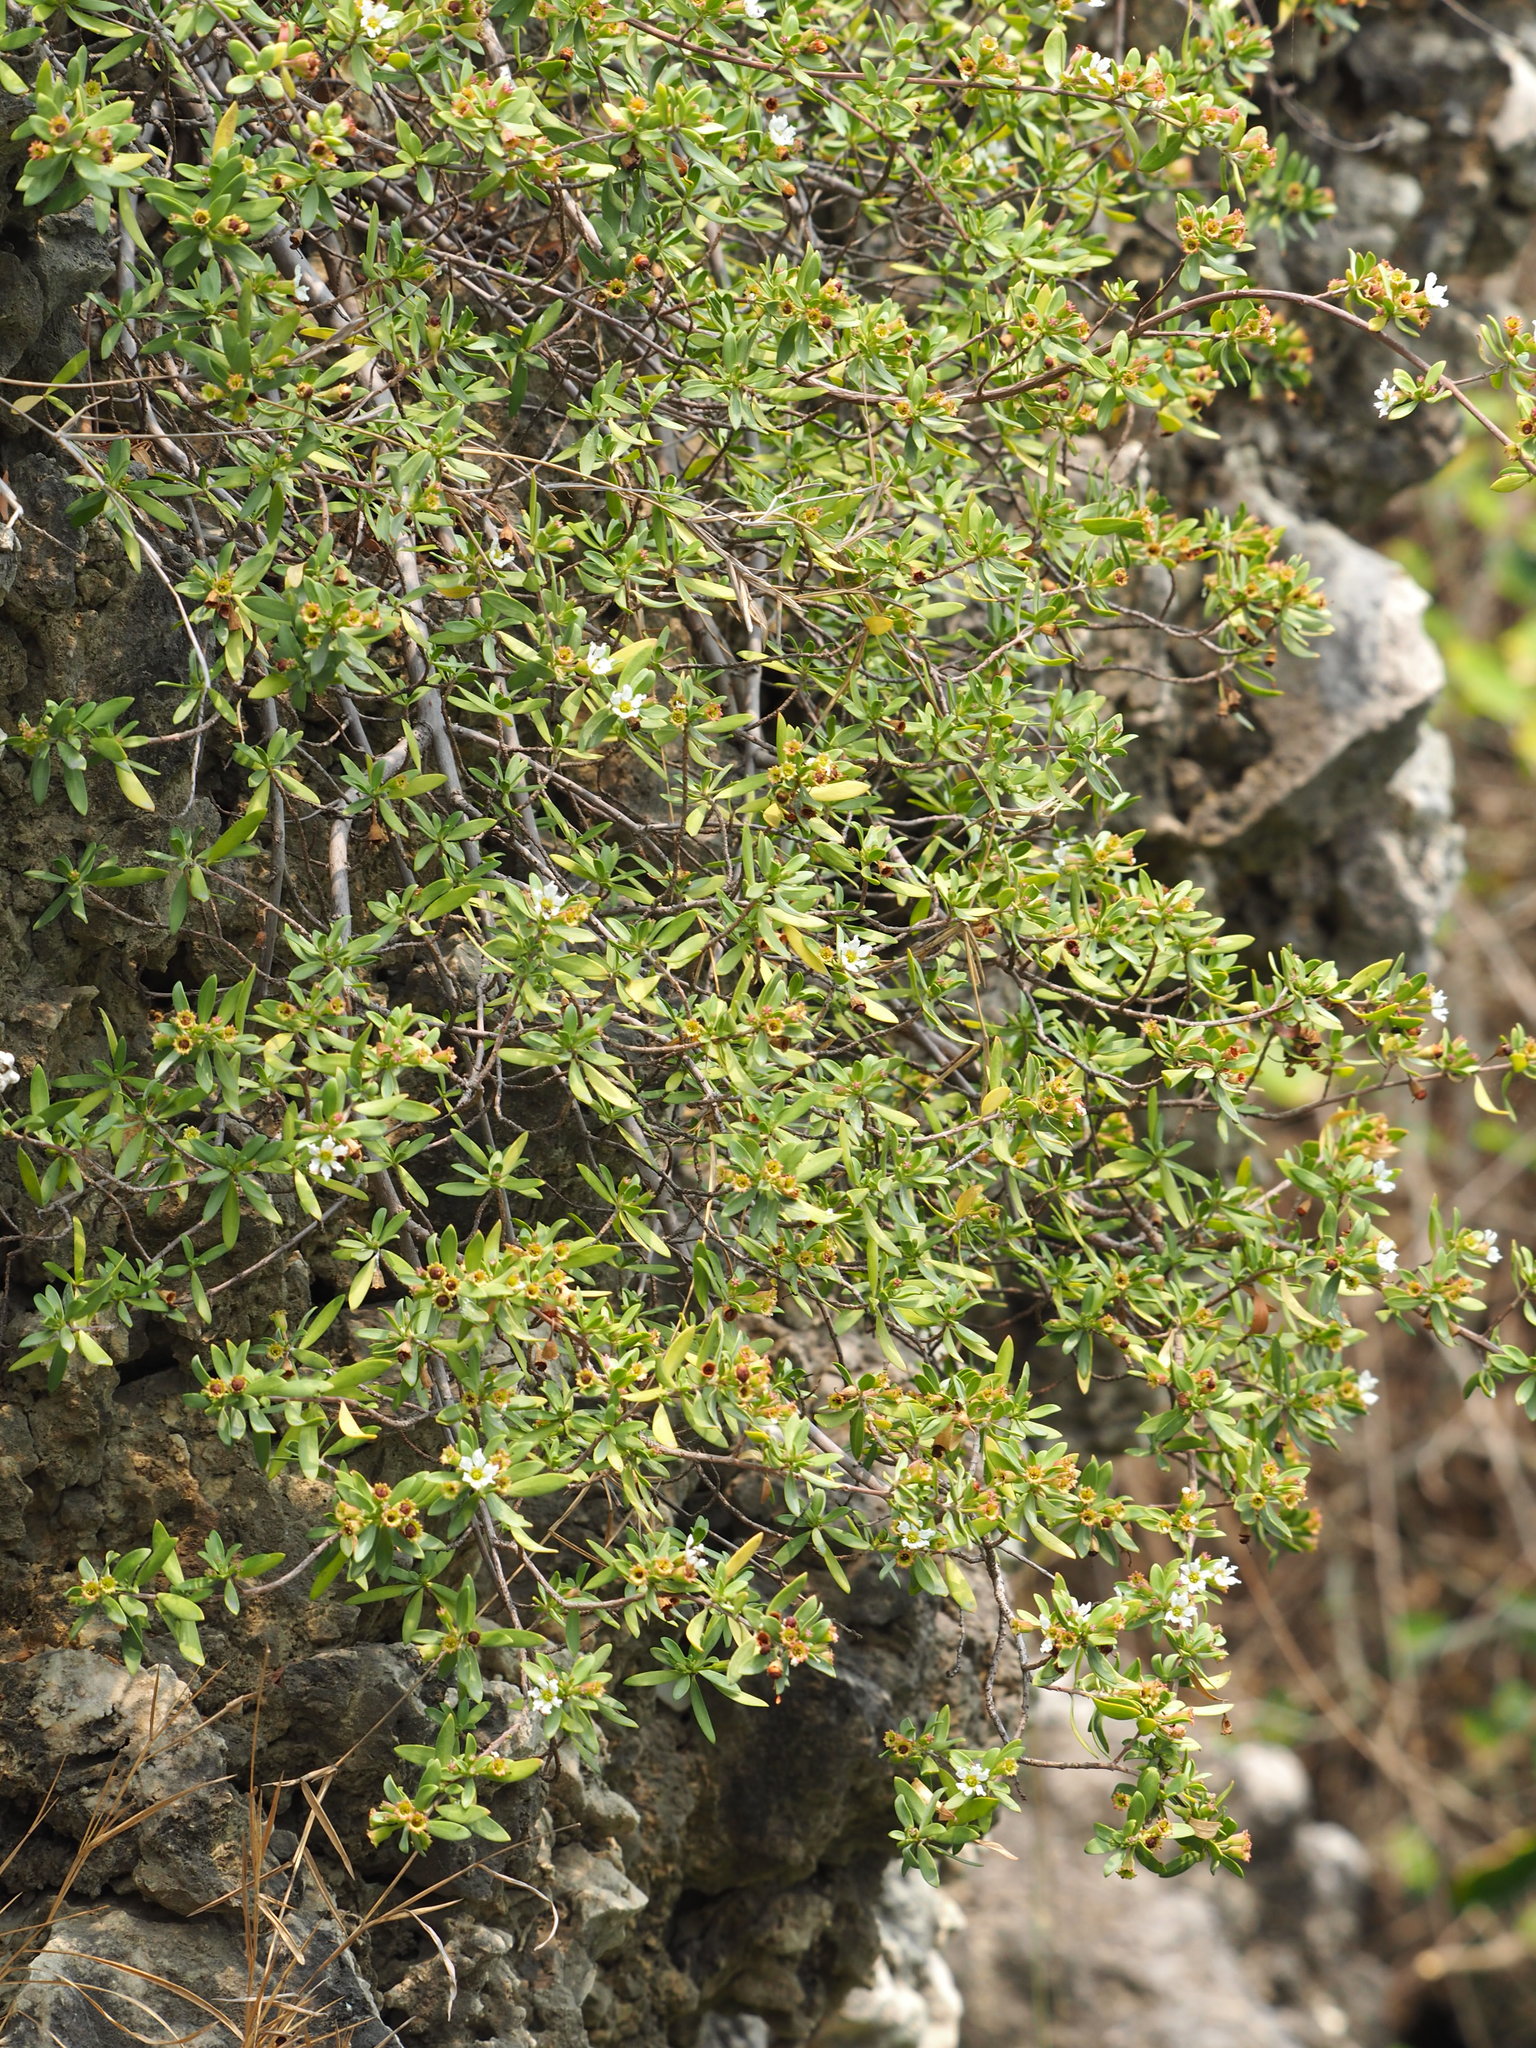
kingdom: Plantae
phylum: Tracheophyta
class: Magnoliopsida
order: Myrtales
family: Lythraceae
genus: Pemphis
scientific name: Pemphis acidula
